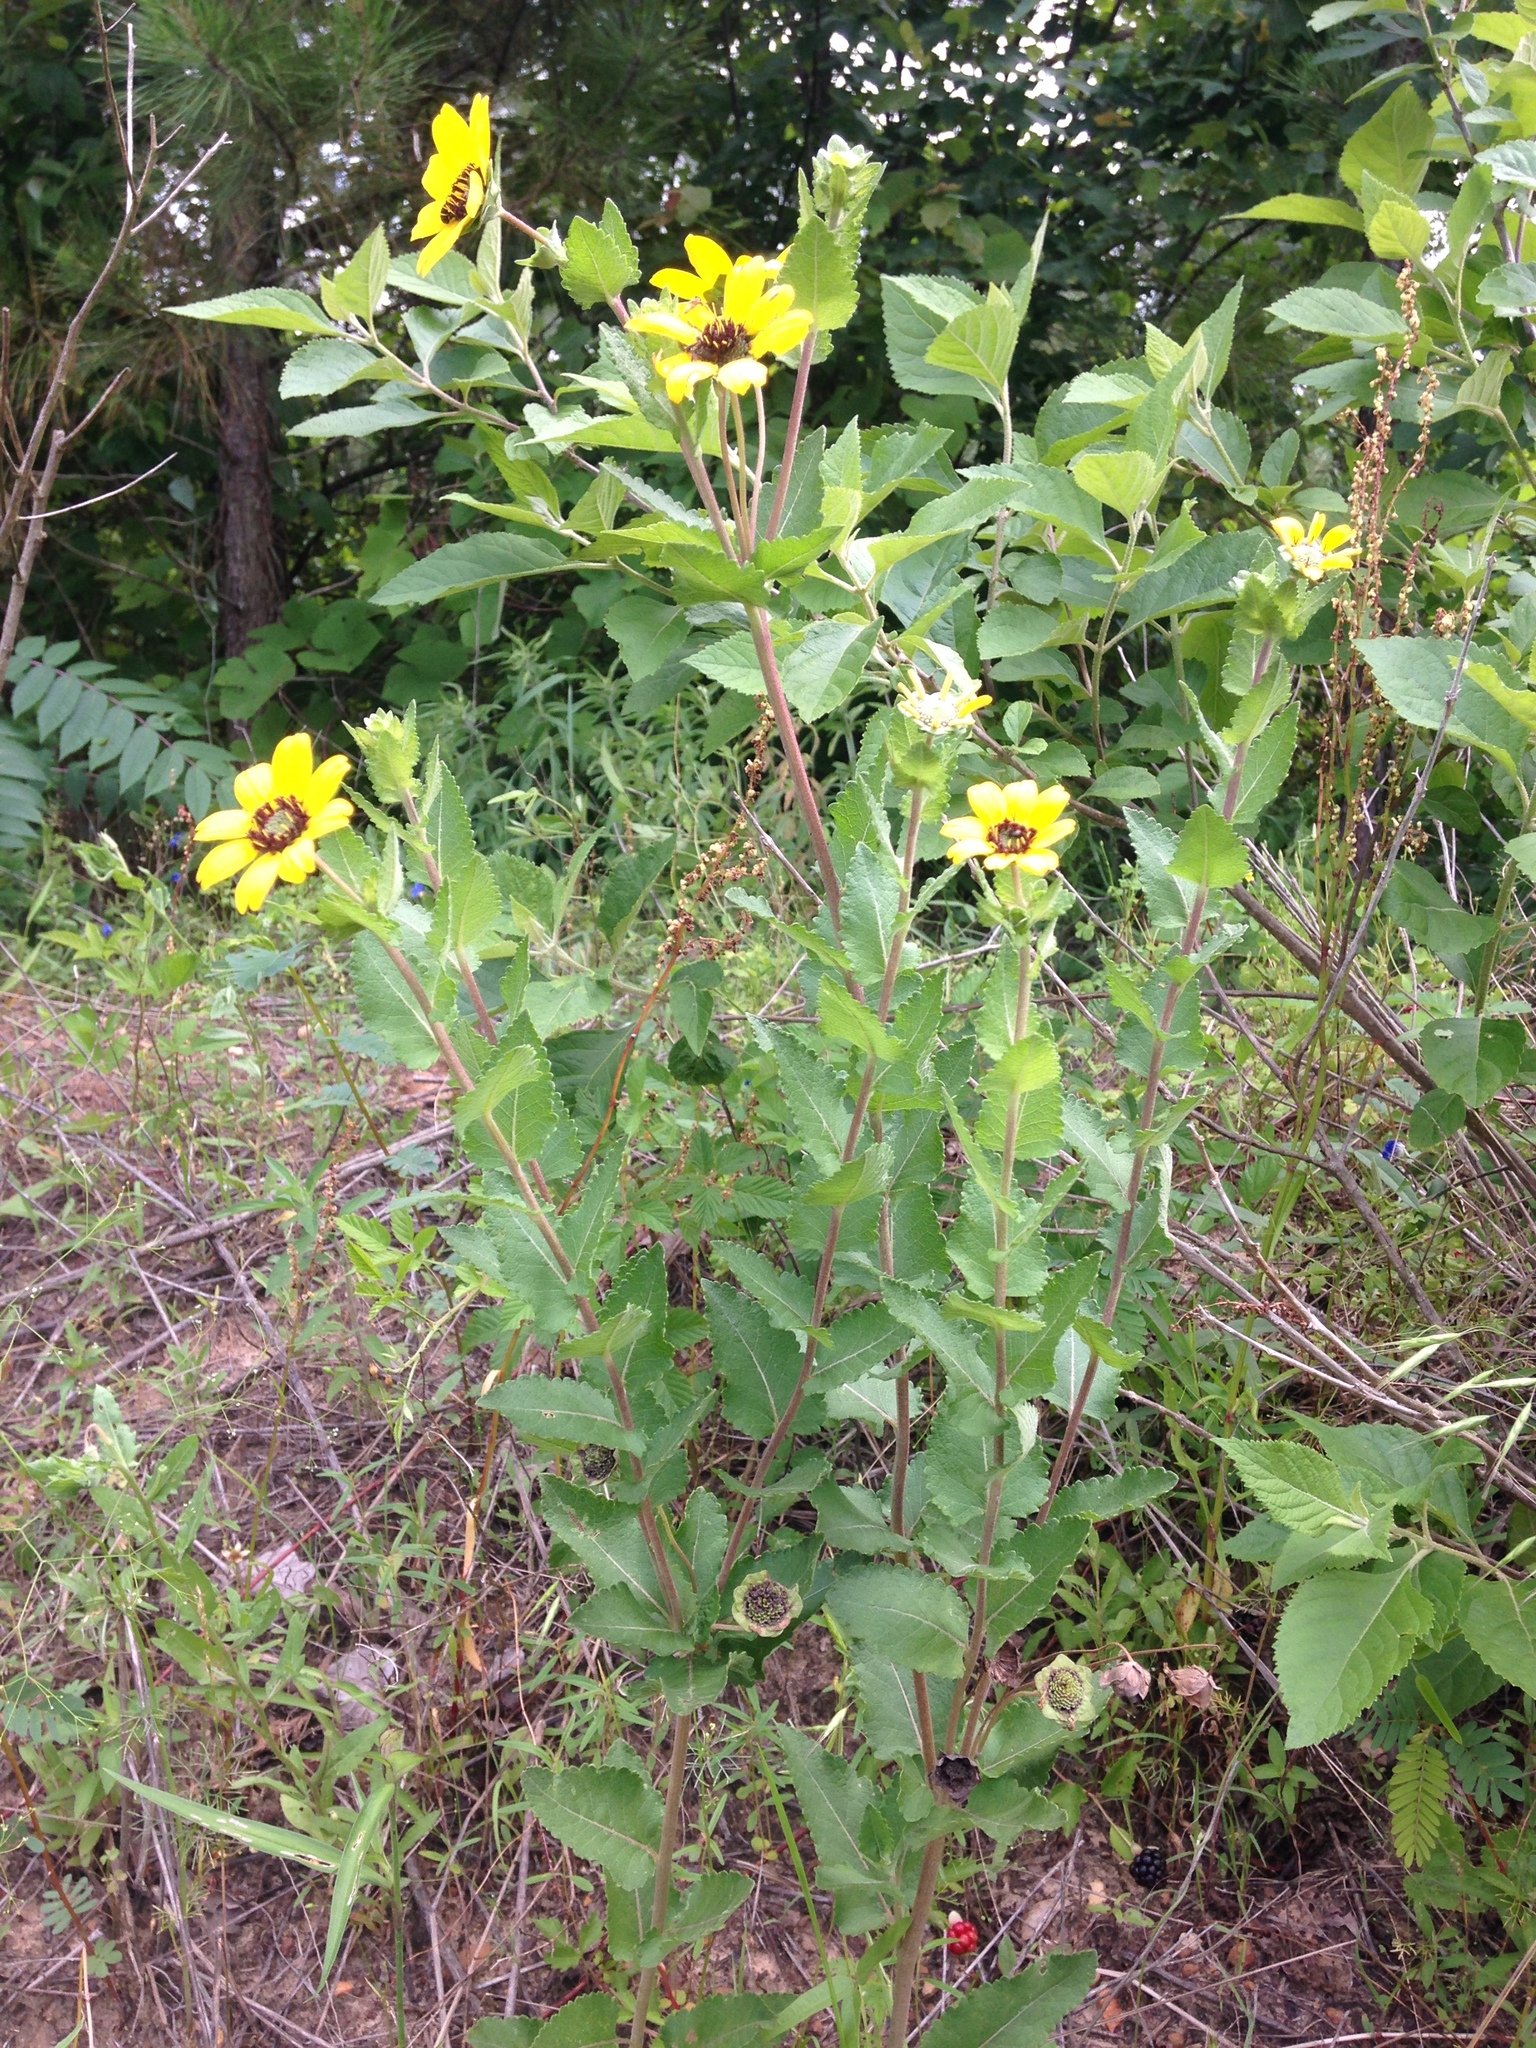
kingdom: Plantae
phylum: Tracheophyta
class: Magnoliopsida
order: Asterales
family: Asteraceae
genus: Berlandiera
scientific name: Berlandiera texana
